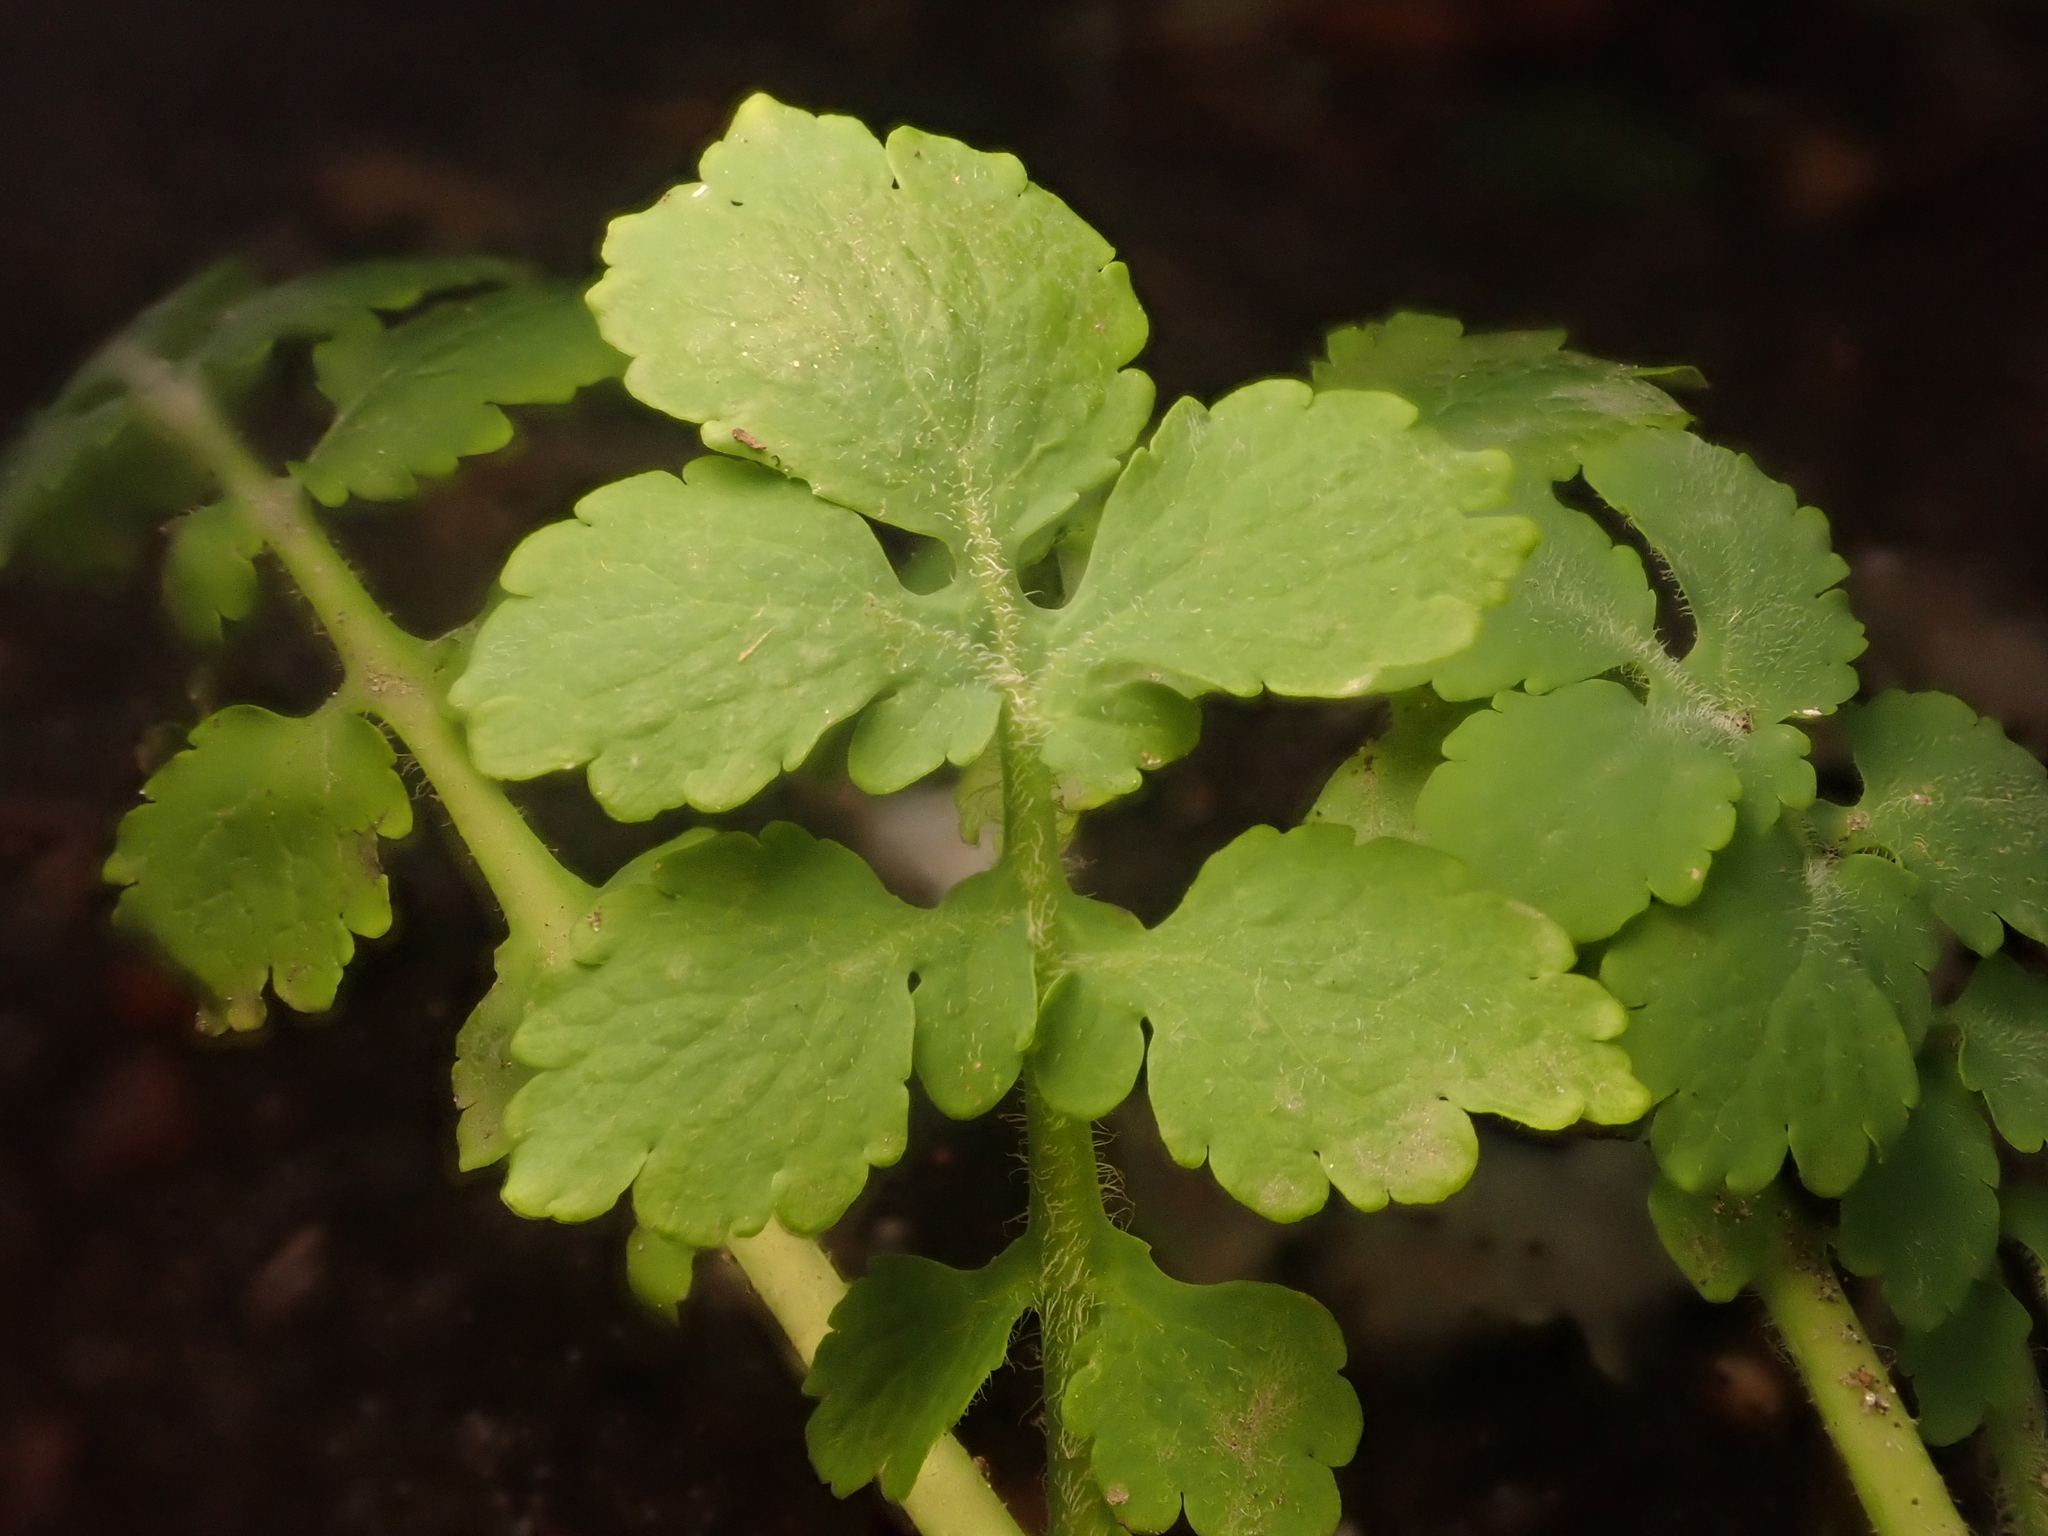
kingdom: Plantae
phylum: Tracheophyta
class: Magnoliopsida
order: Ranunculales
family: Papaveraceae
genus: Chelidonium
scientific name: Chelidonium majus
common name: Greater celandine
